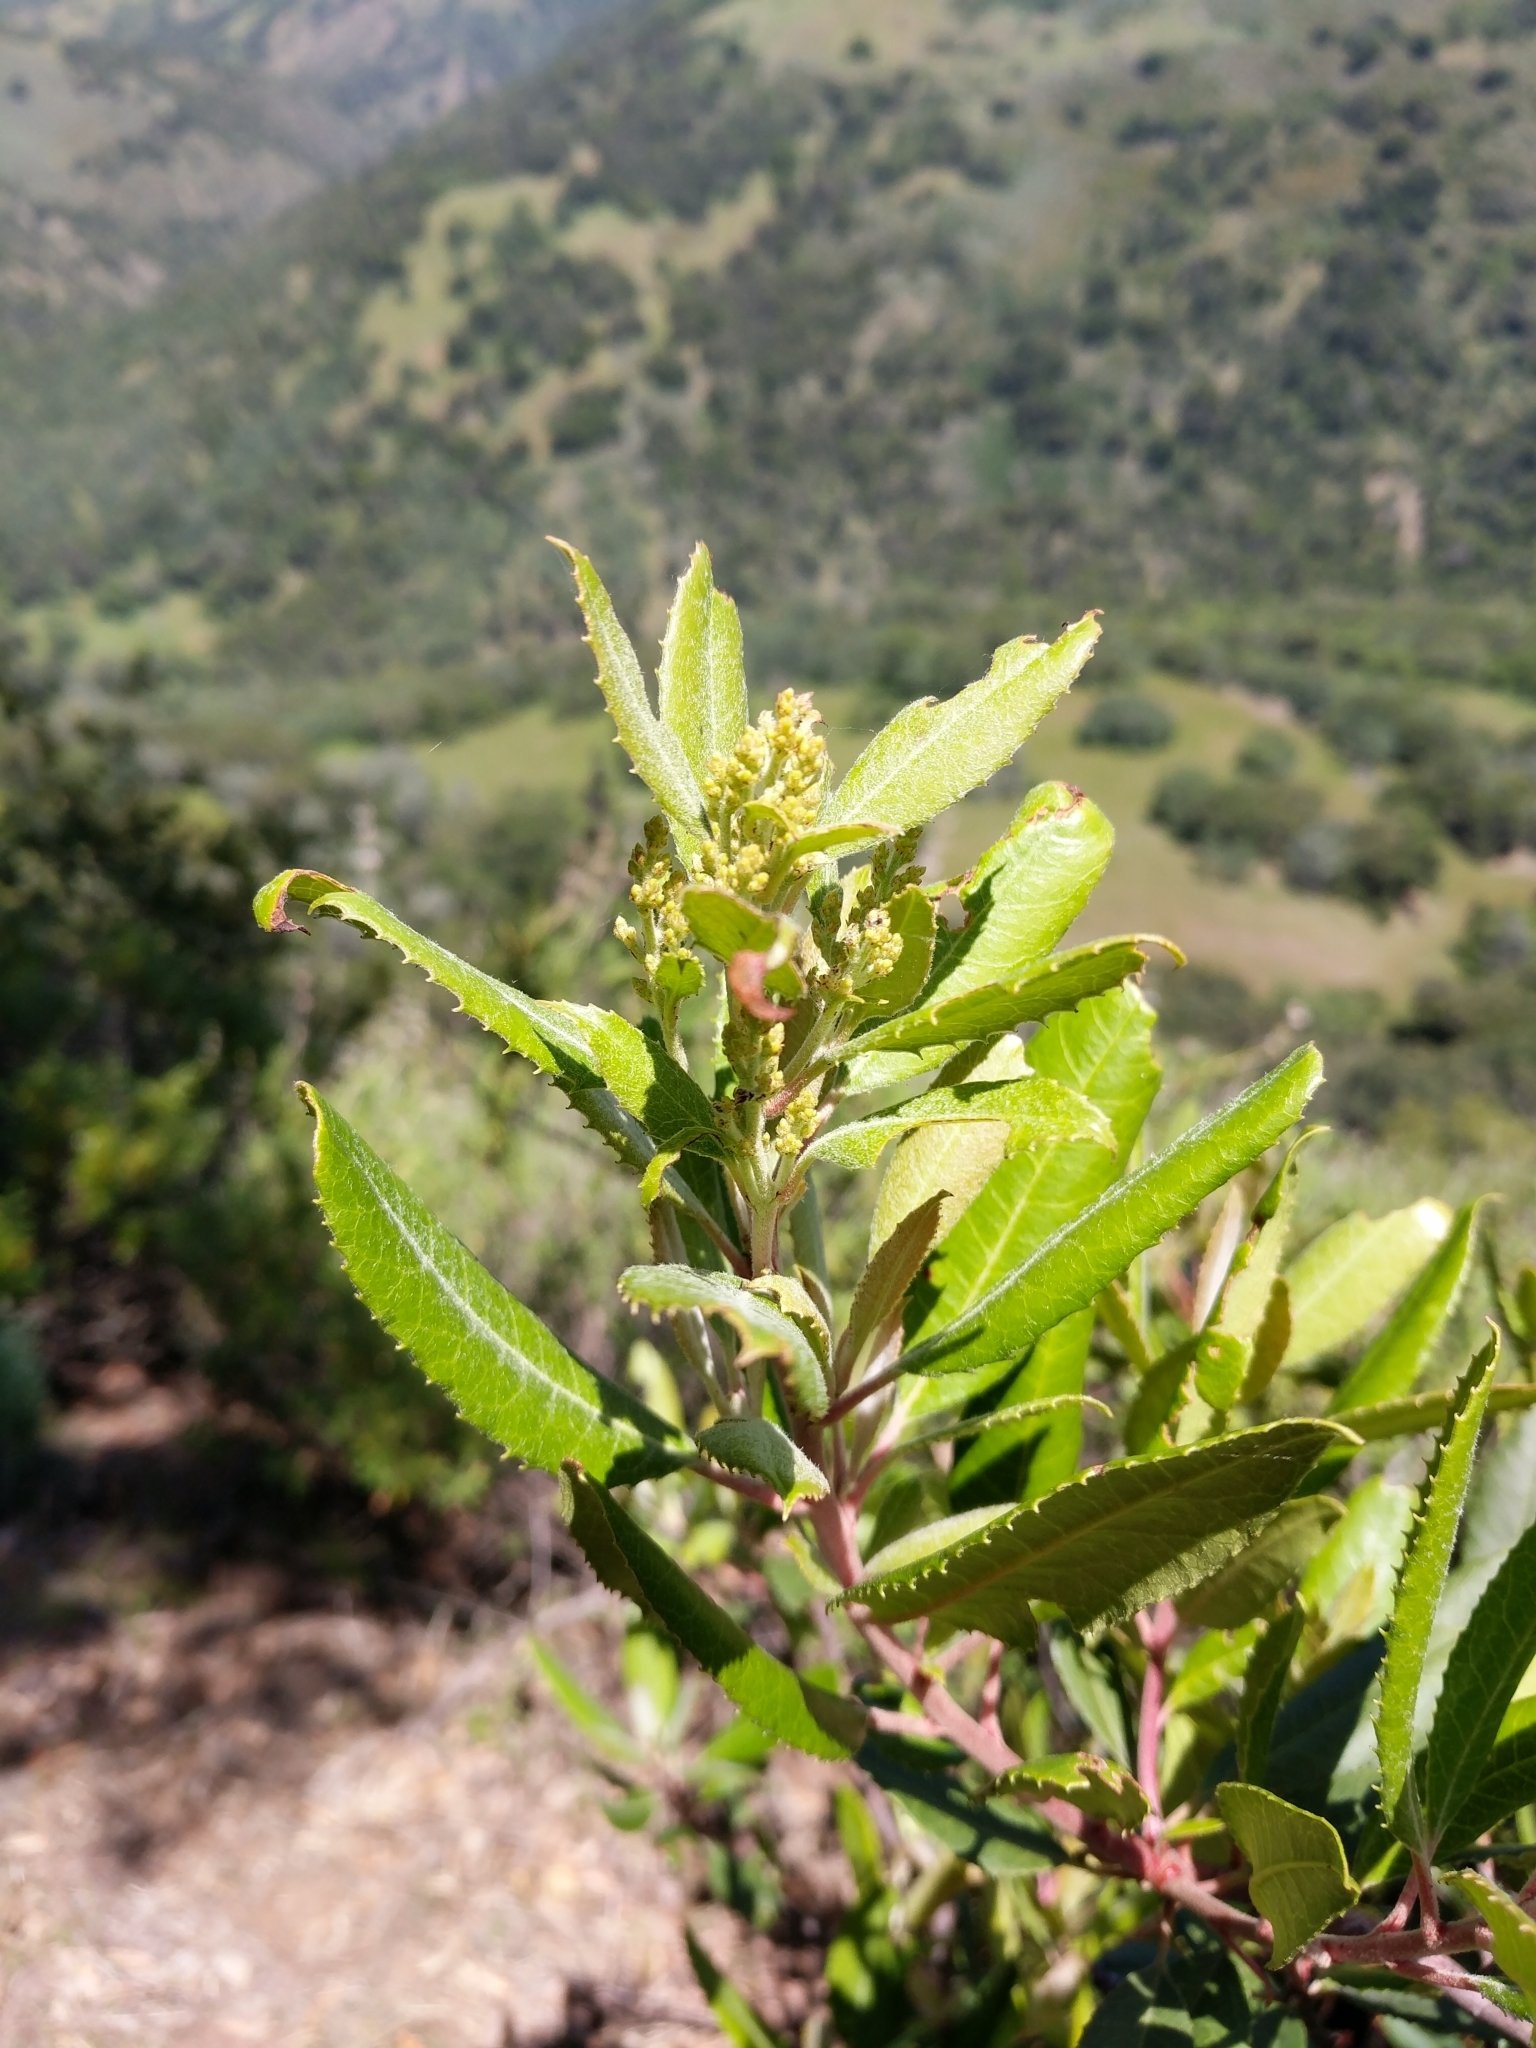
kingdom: Plantae
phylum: Tracheophyta
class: Magnoliopsida
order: Rosales
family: Rosaceae
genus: Heteromeles
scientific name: Heteromeles arbutifolia
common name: California-holly
